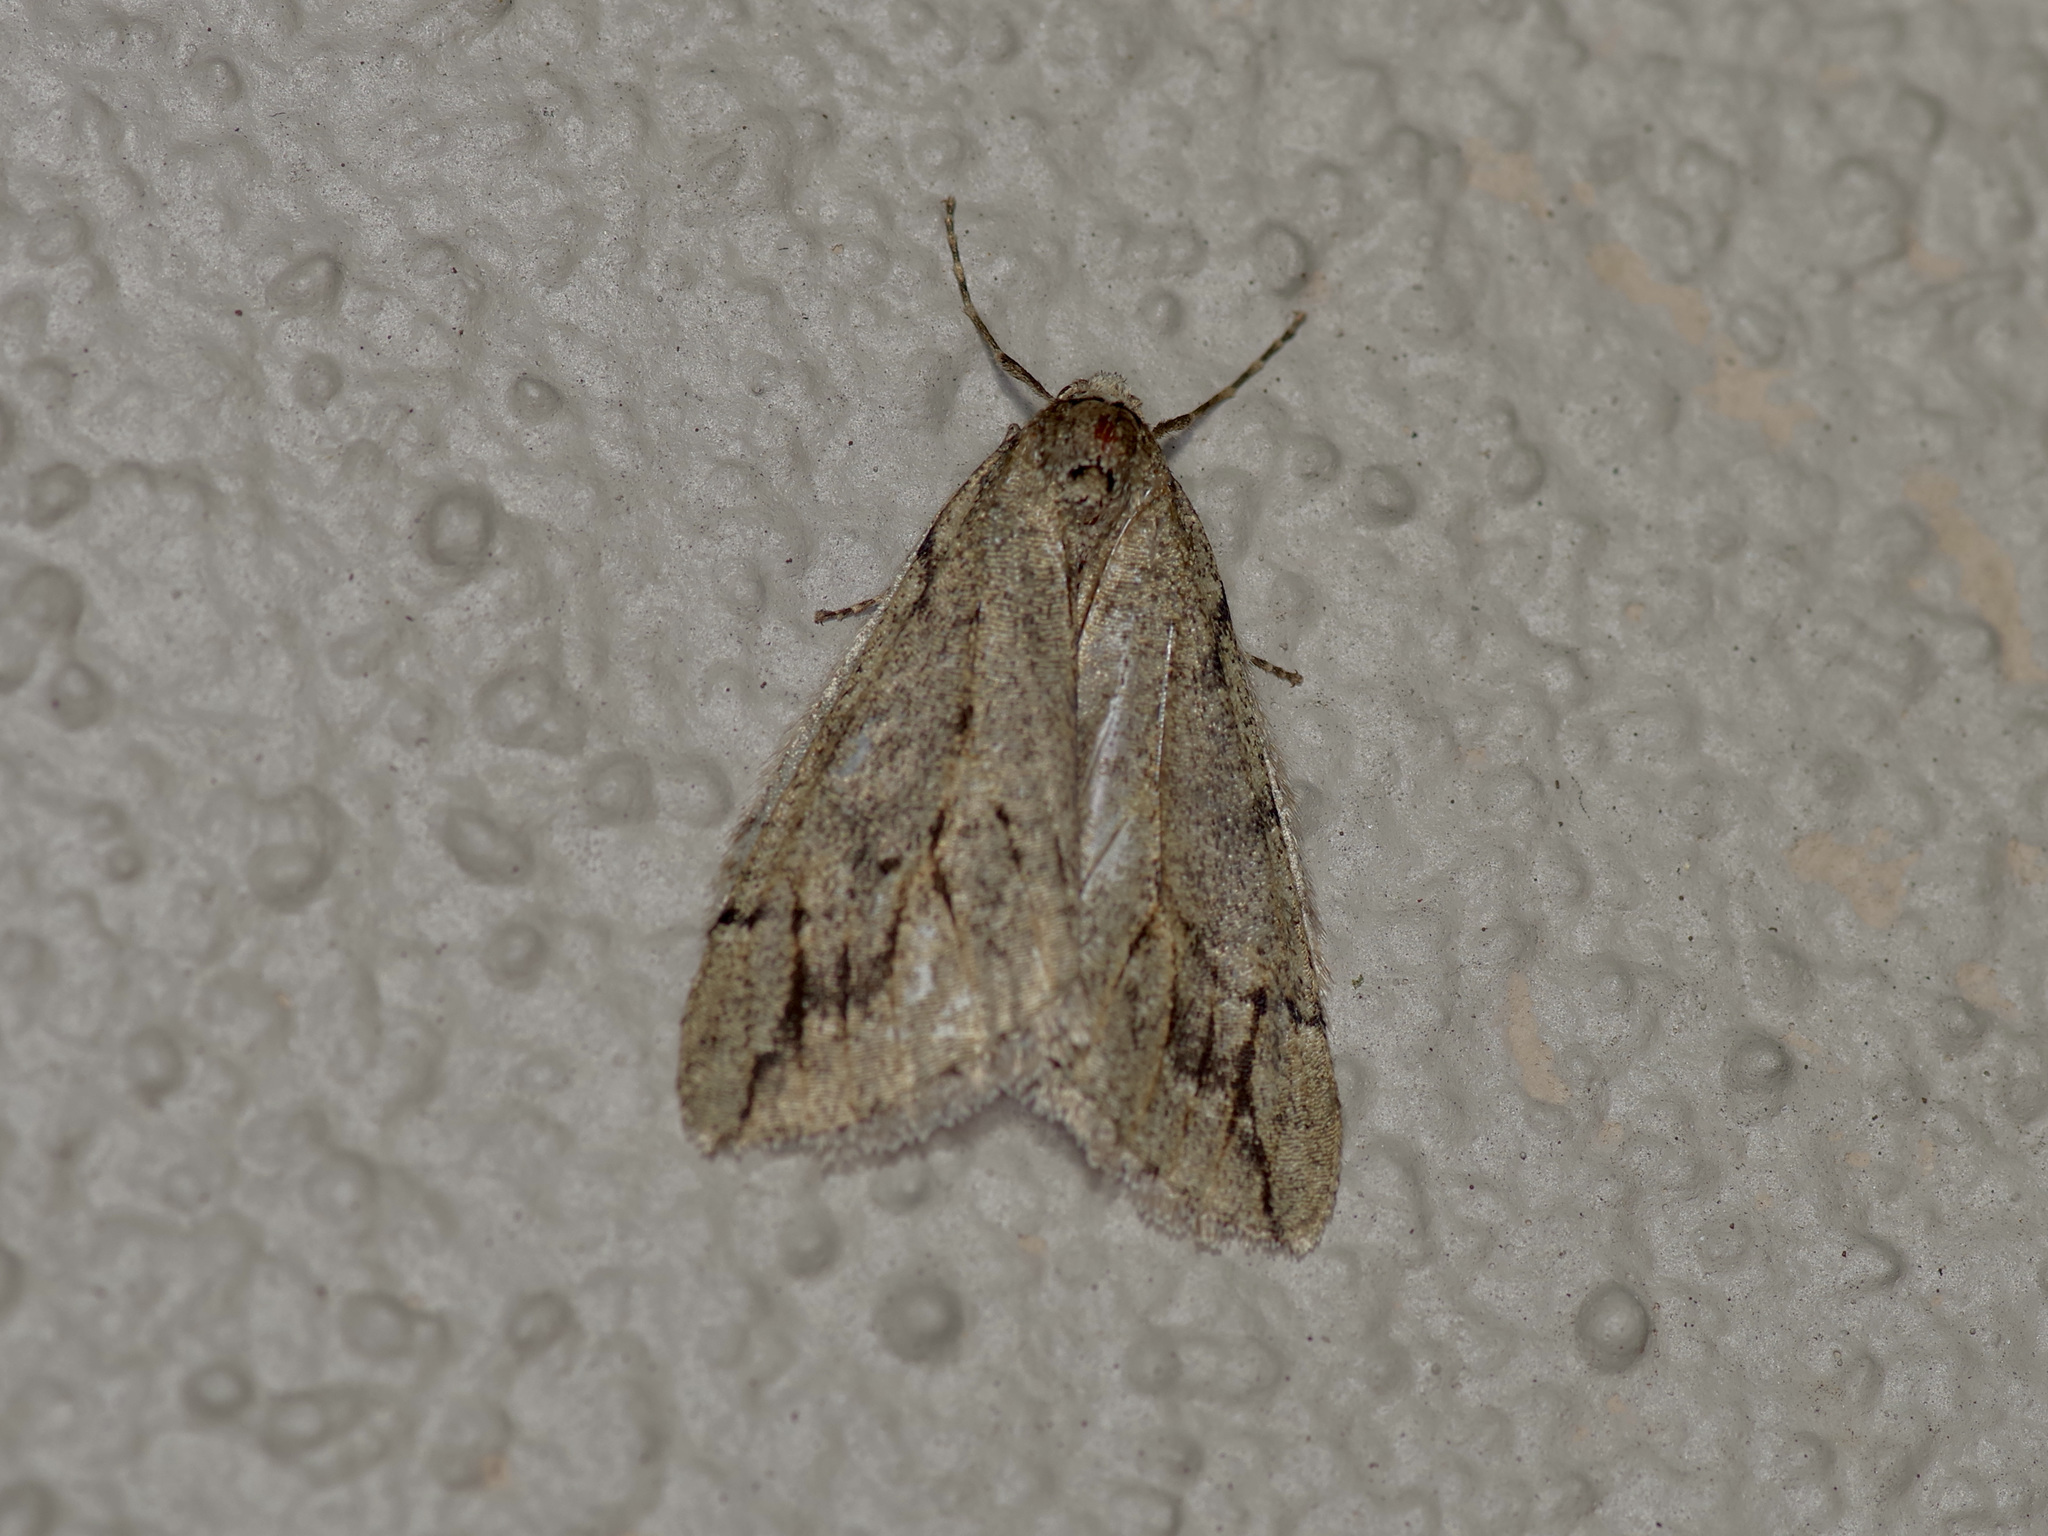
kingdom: Animalia
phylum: Arthropoda
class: Insecta
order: Lepidoptera
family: Geometridae
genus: Paleacrita
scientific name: Paleacrita vernata
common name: Spring cankerworm
